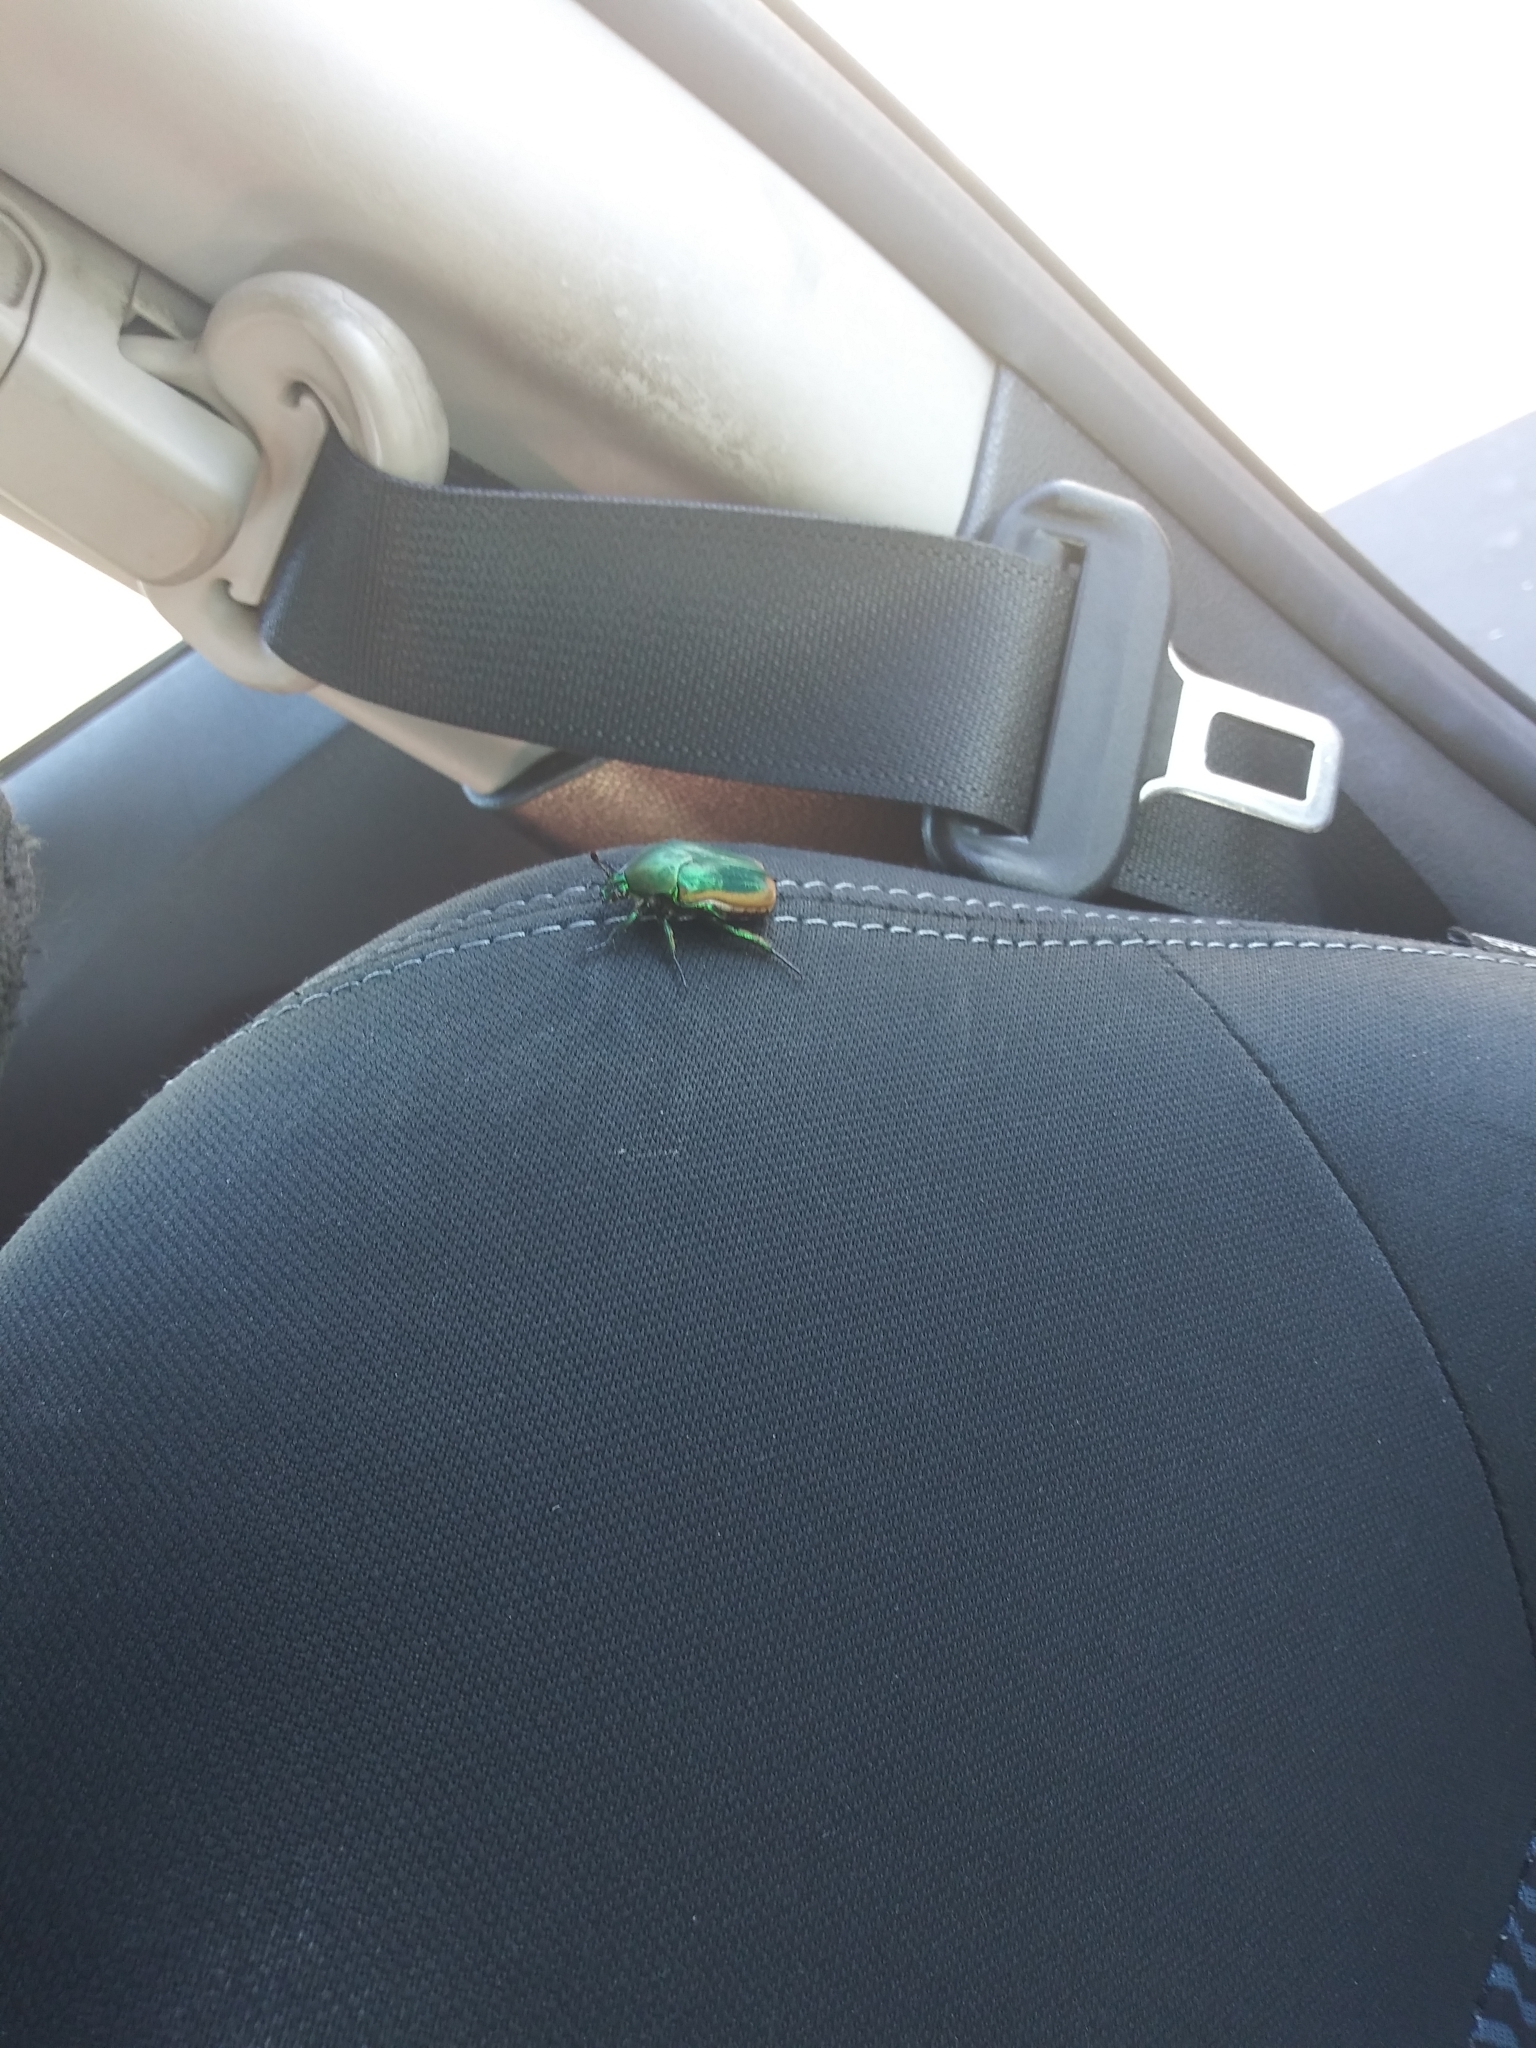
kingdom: Animalia
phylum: Arthropoda
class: Insecta
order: Coleoptera
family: Scarabaeidae
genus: Cotinis
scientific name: Cotinis mutabilis
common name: Figeater beetle
